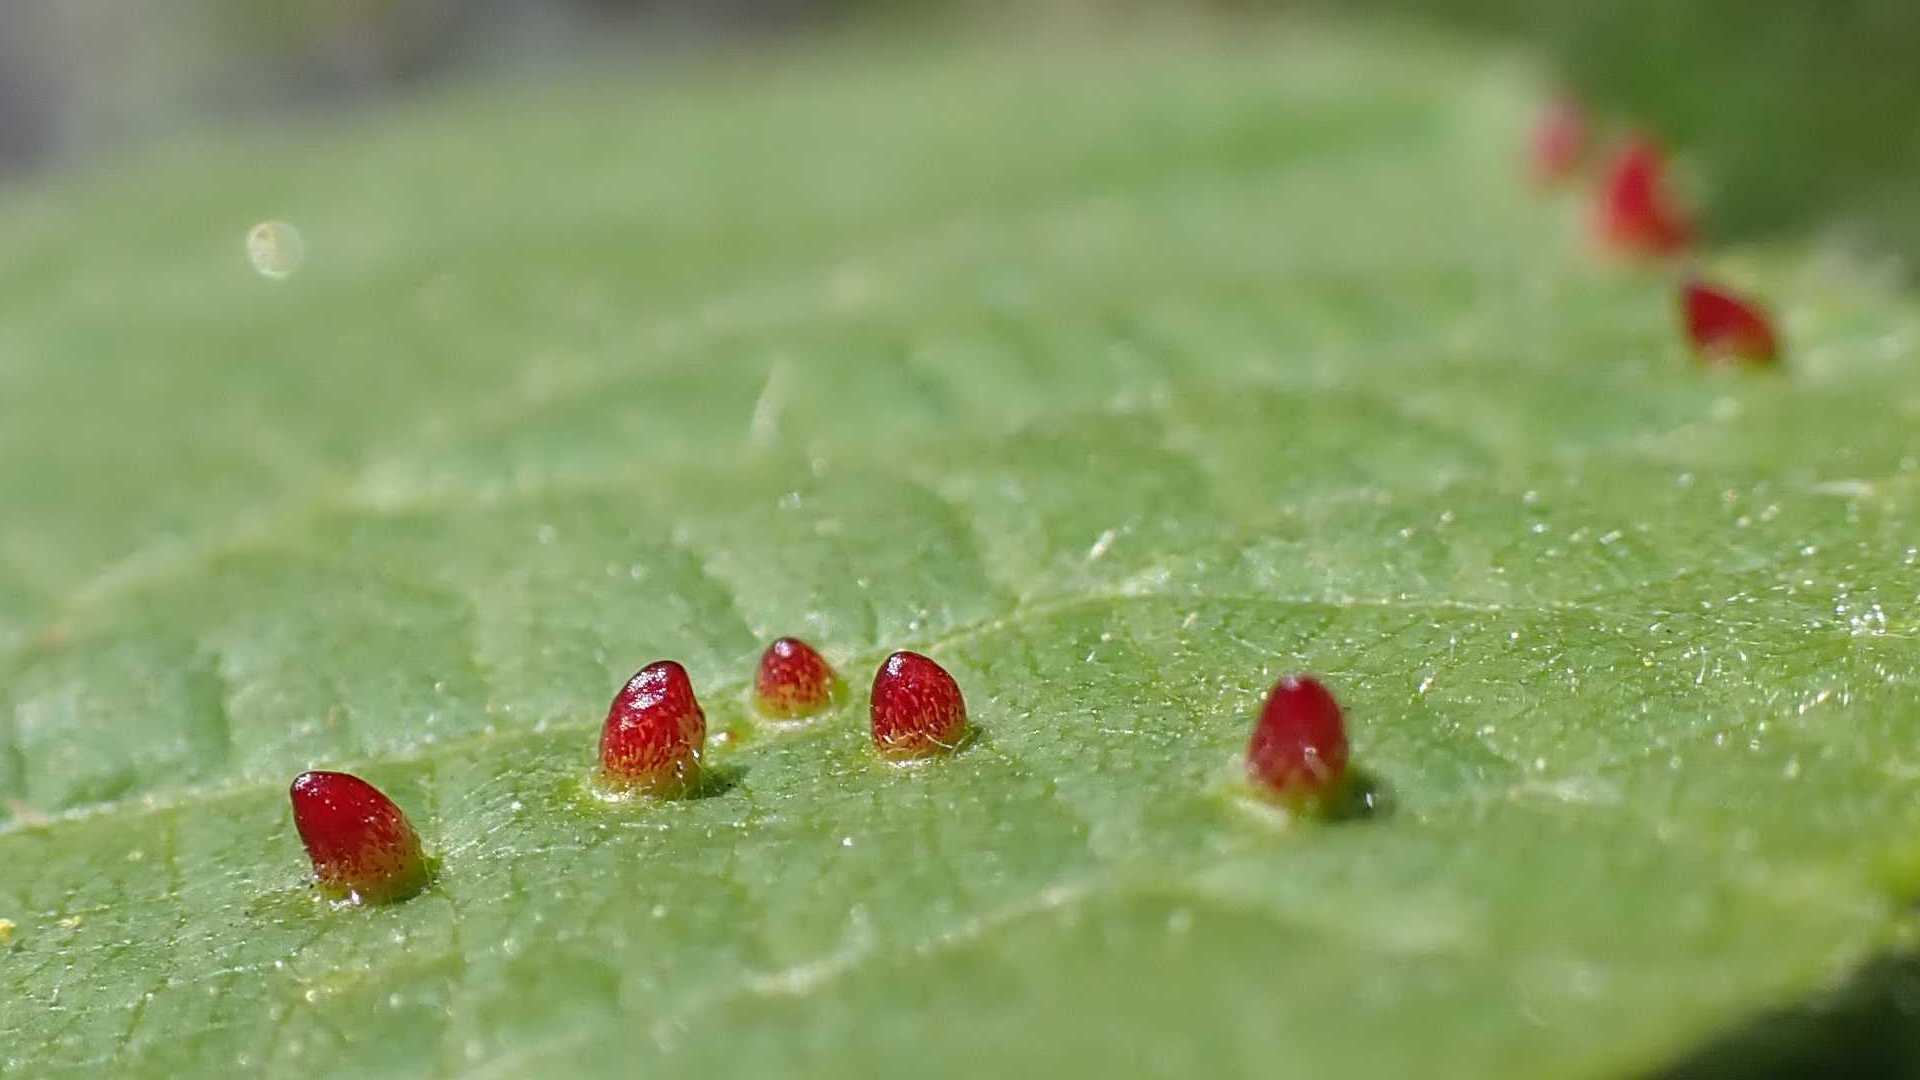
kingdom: Animalia
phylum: Arthropoda
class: Arachnida
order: Trombidiformes
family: Eriophyidae
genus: Eriophyes
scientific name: Eriophyes tiliae
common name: Red nail gall mite
